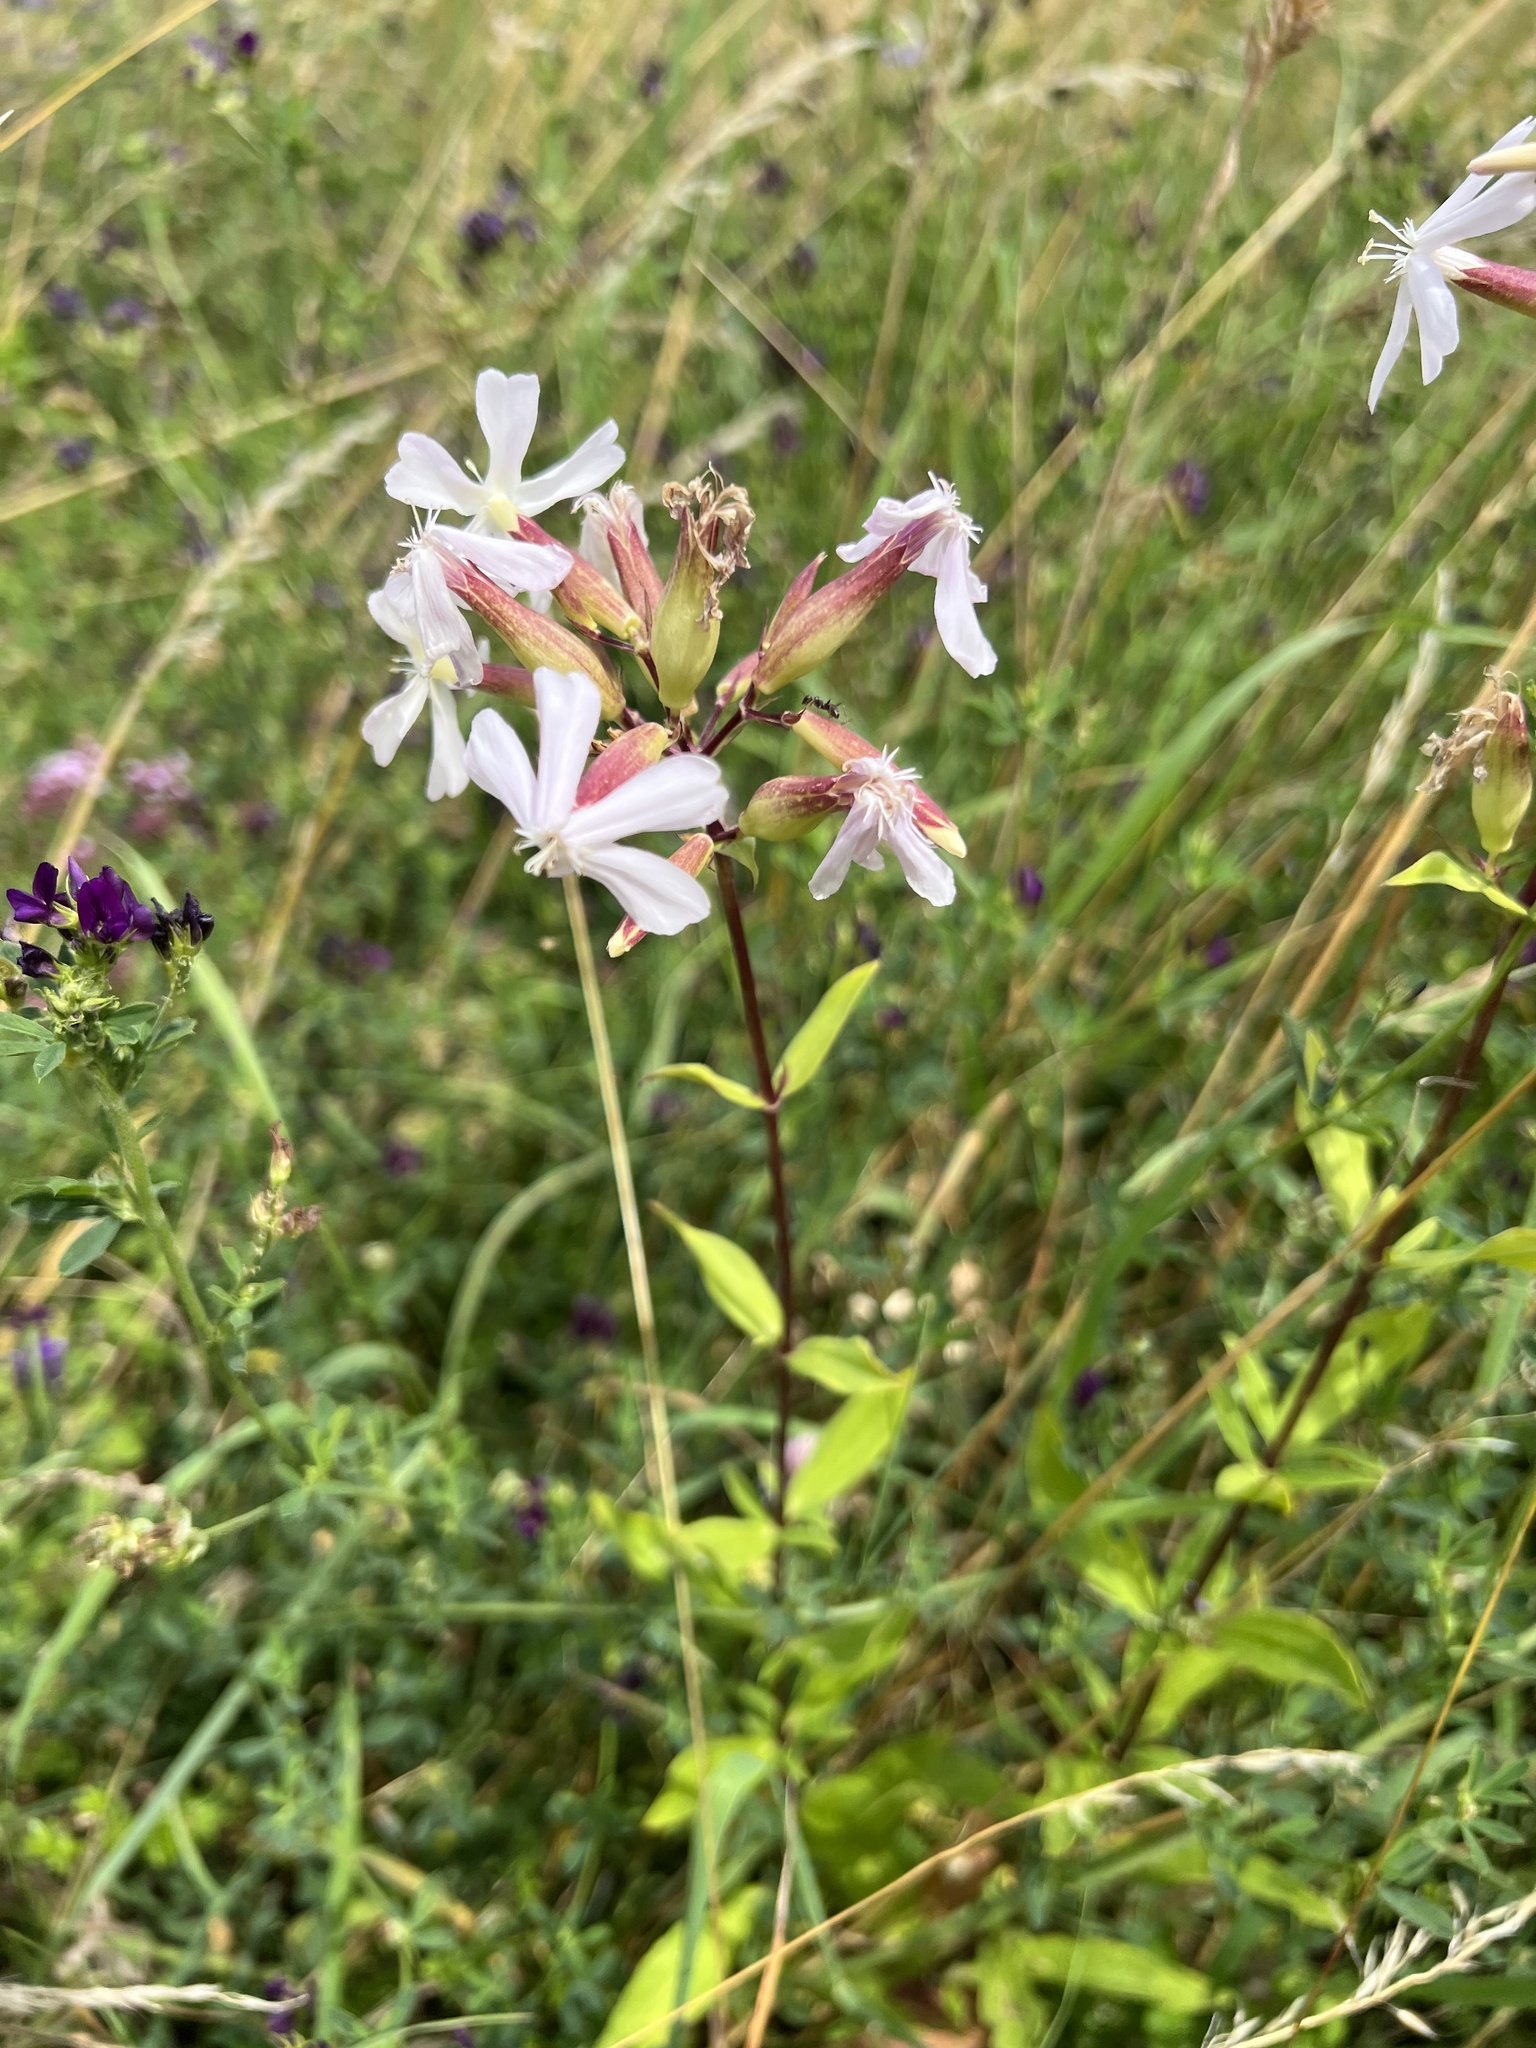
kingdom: Plantae
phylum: Tracheophyta
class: Magnoliopsida
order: Caryophyllales
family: Caryophyllaceae
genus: Saponaria
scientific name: Saponaria officinalis
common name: Soapwort
